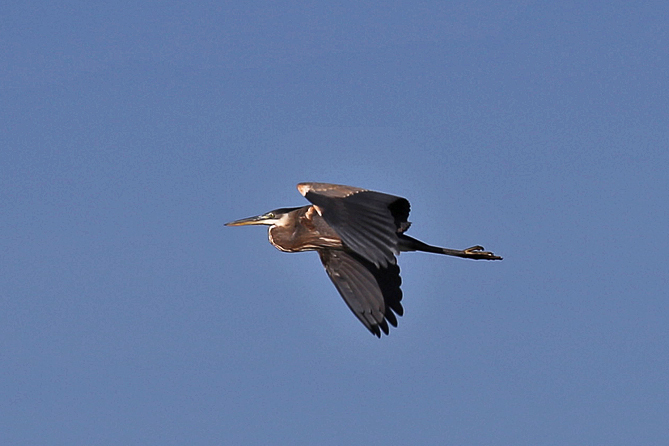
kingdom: Animalia
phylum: Chordata
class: Aves
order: Pelecaniformes
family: Ardeidae
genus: Ardea
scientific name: Ardea herodias
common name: Great blue heron
